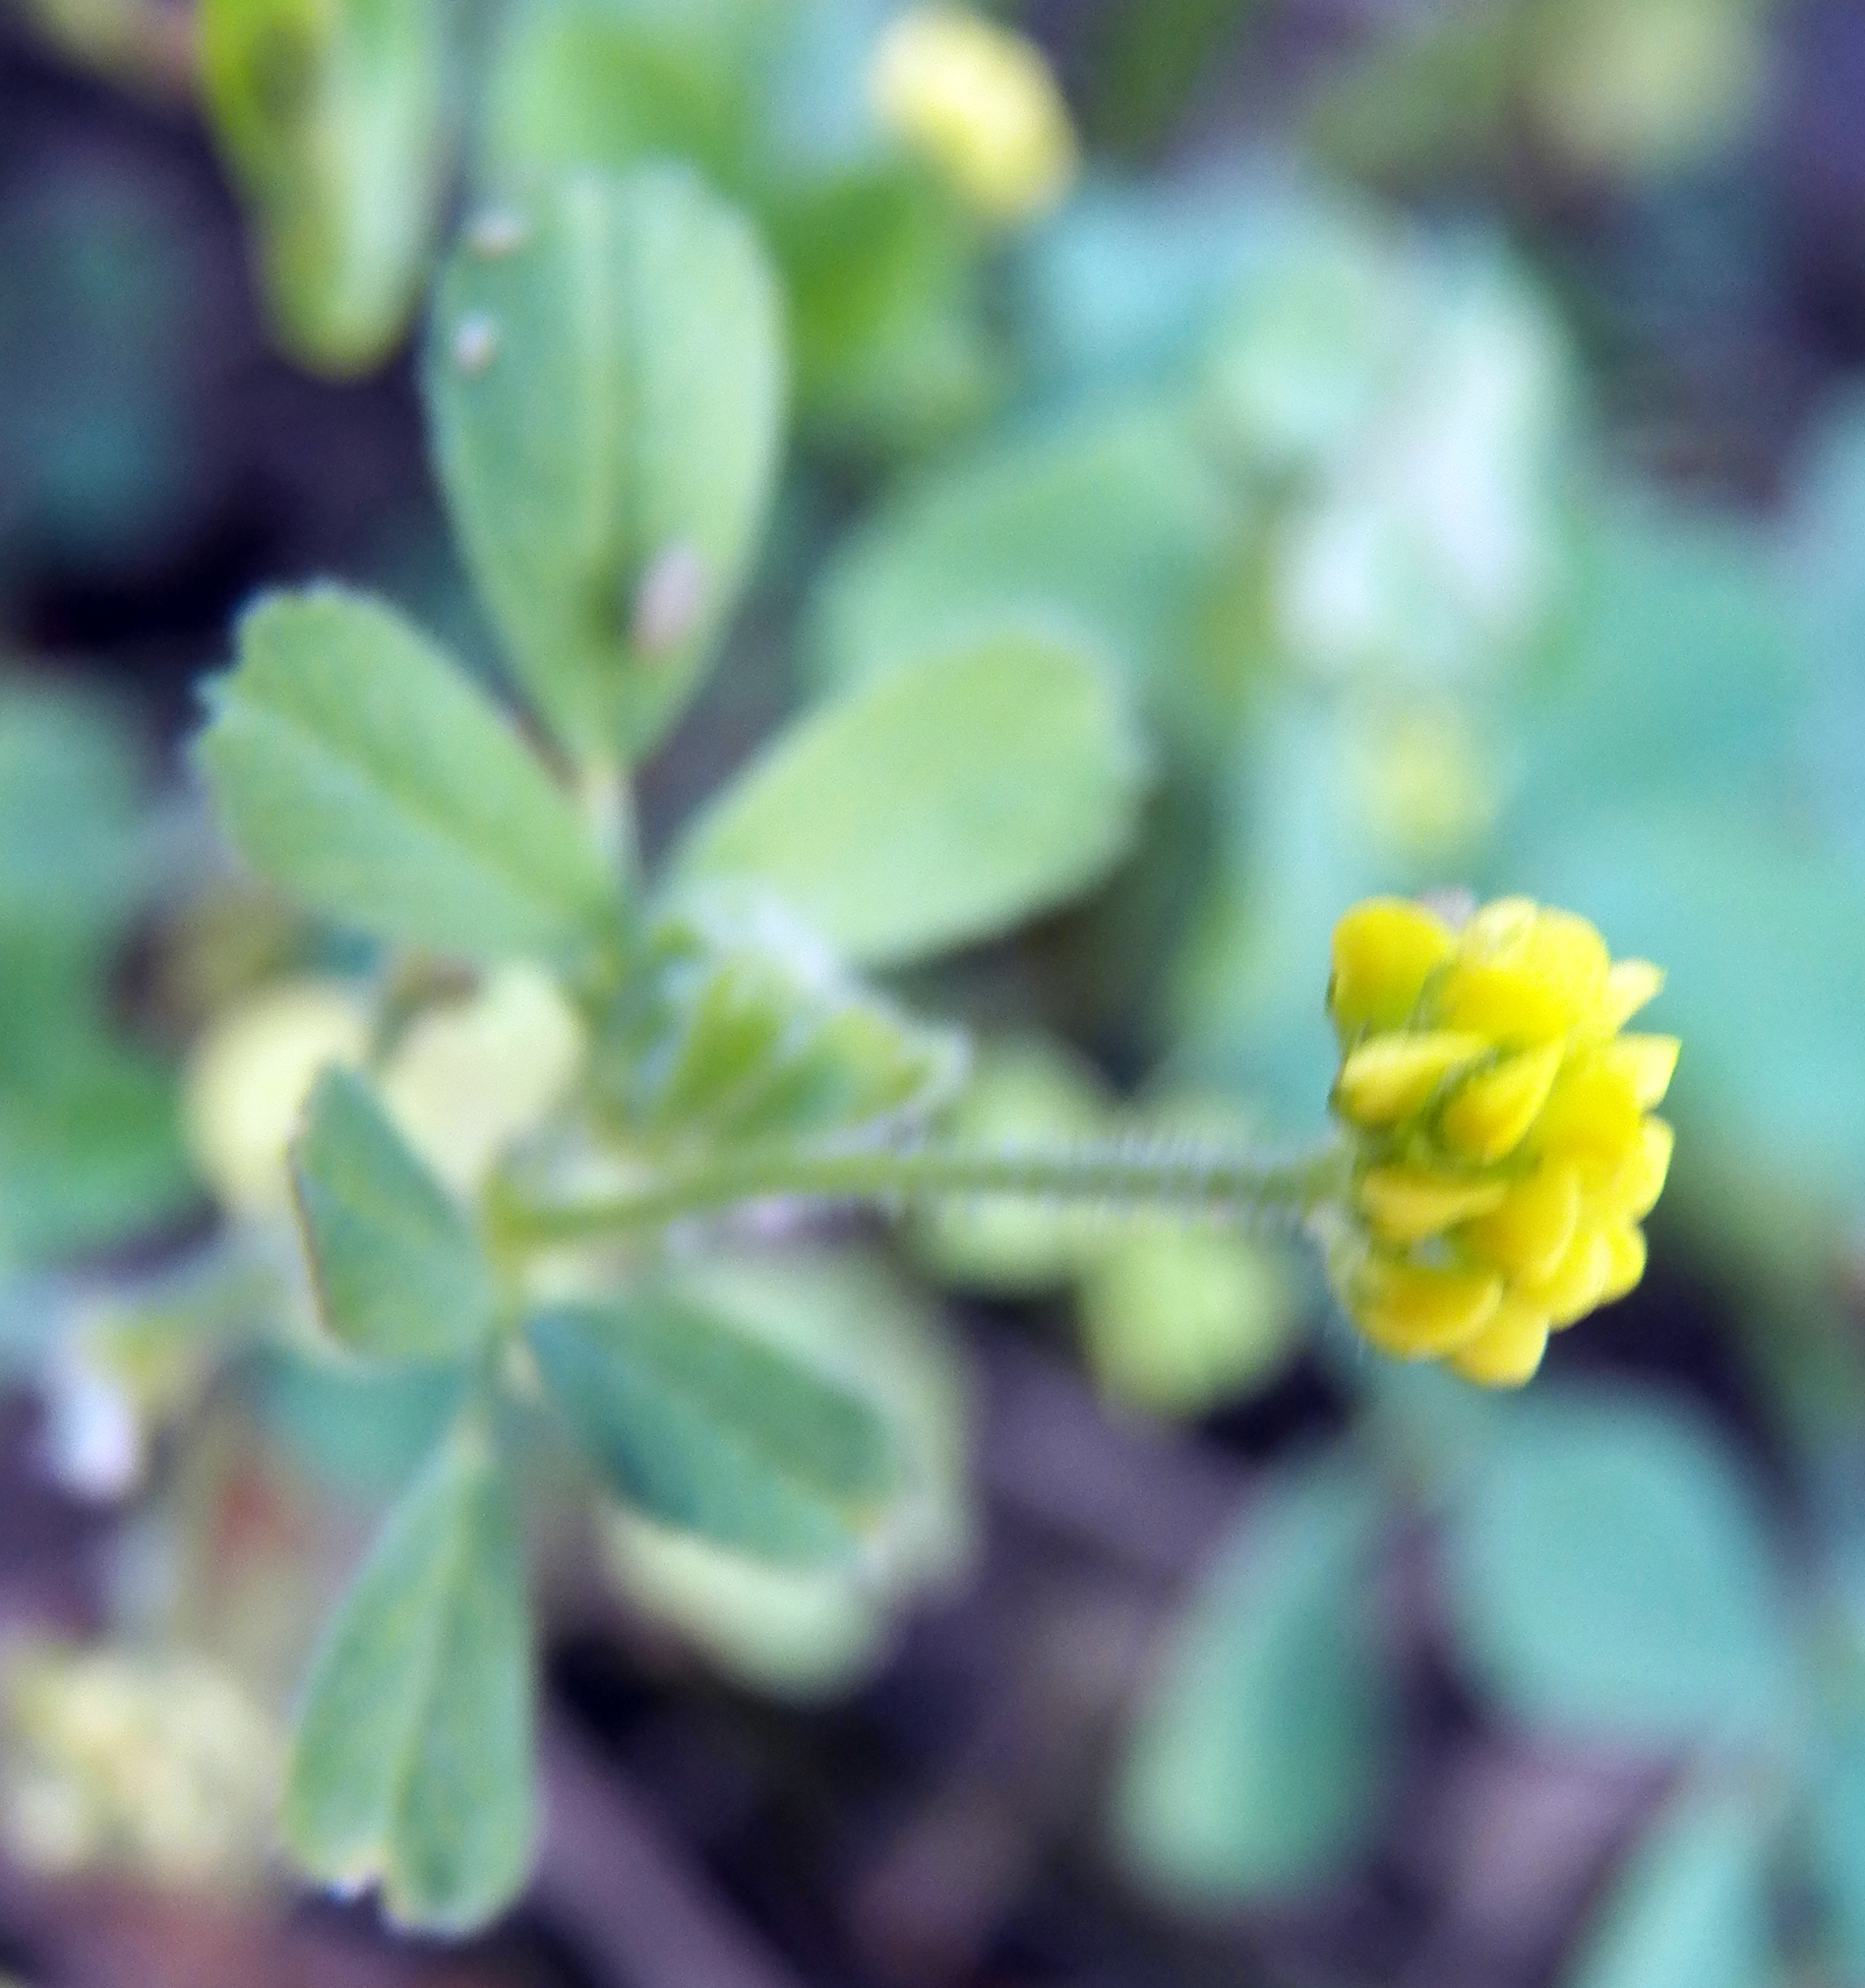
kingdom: Plantae
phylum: Tracheophyta
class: Magnoliopsida
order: Fabales
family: Fabaceae
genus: Medicago
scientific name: Medicago lupulina
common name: Black medick
